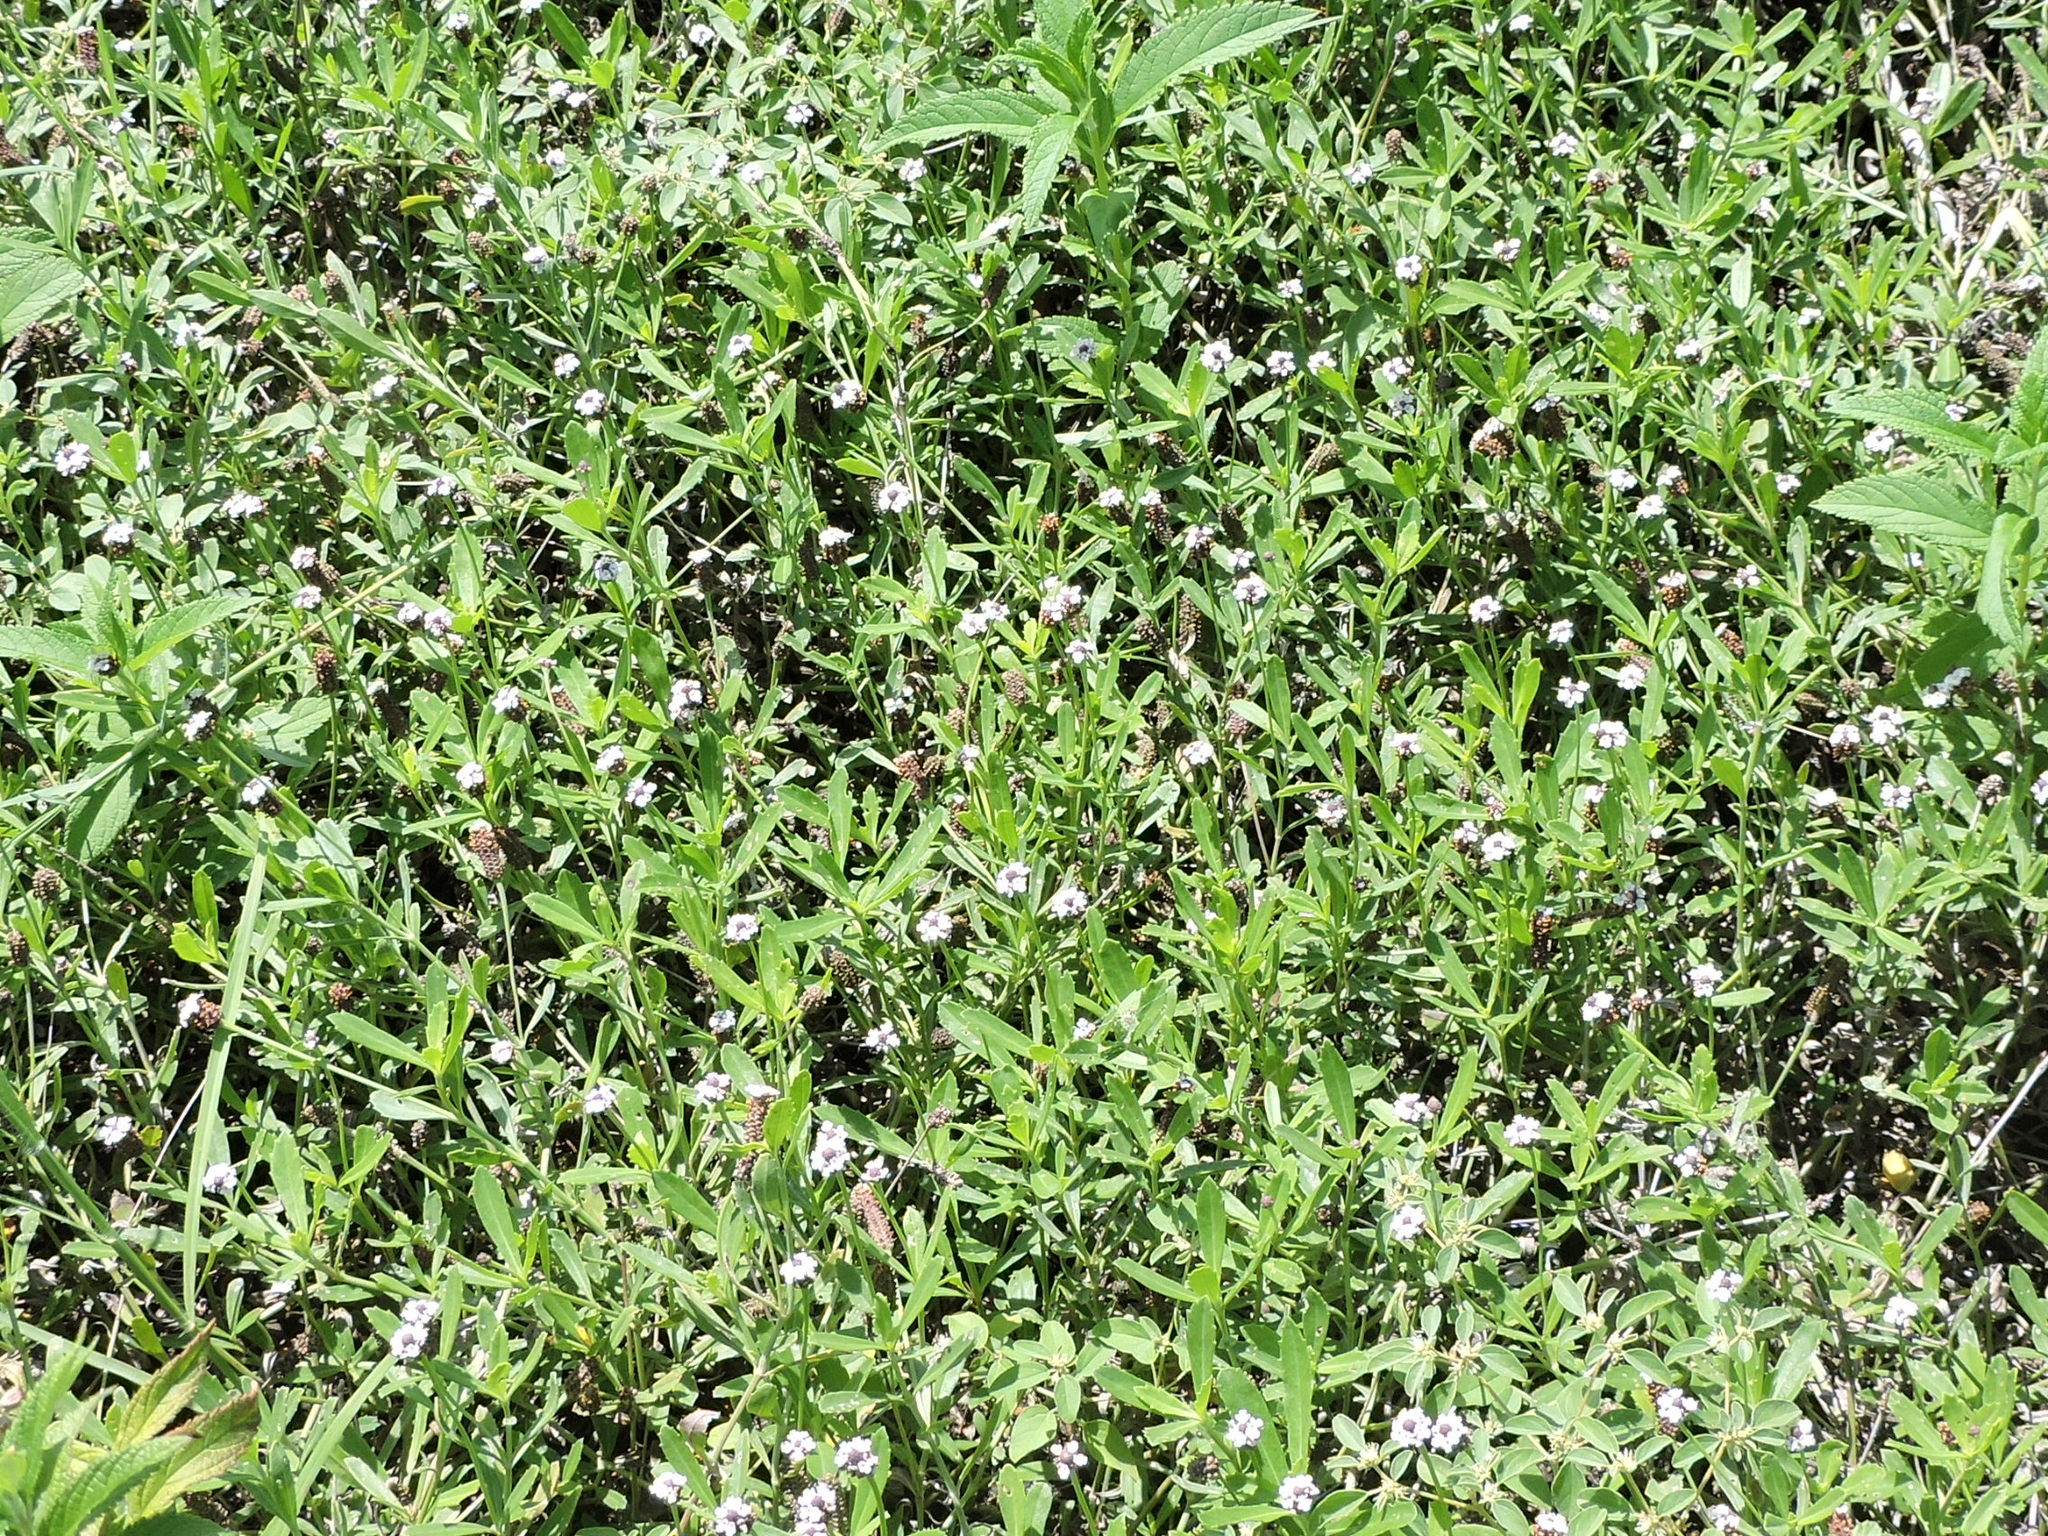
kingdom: Plantae
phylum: Tracheophyta
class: Magnoliopsida
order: Lamiales
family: Verbenaceae
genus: Phyla
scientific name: Phyla nodiflora
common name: Frogfruit
